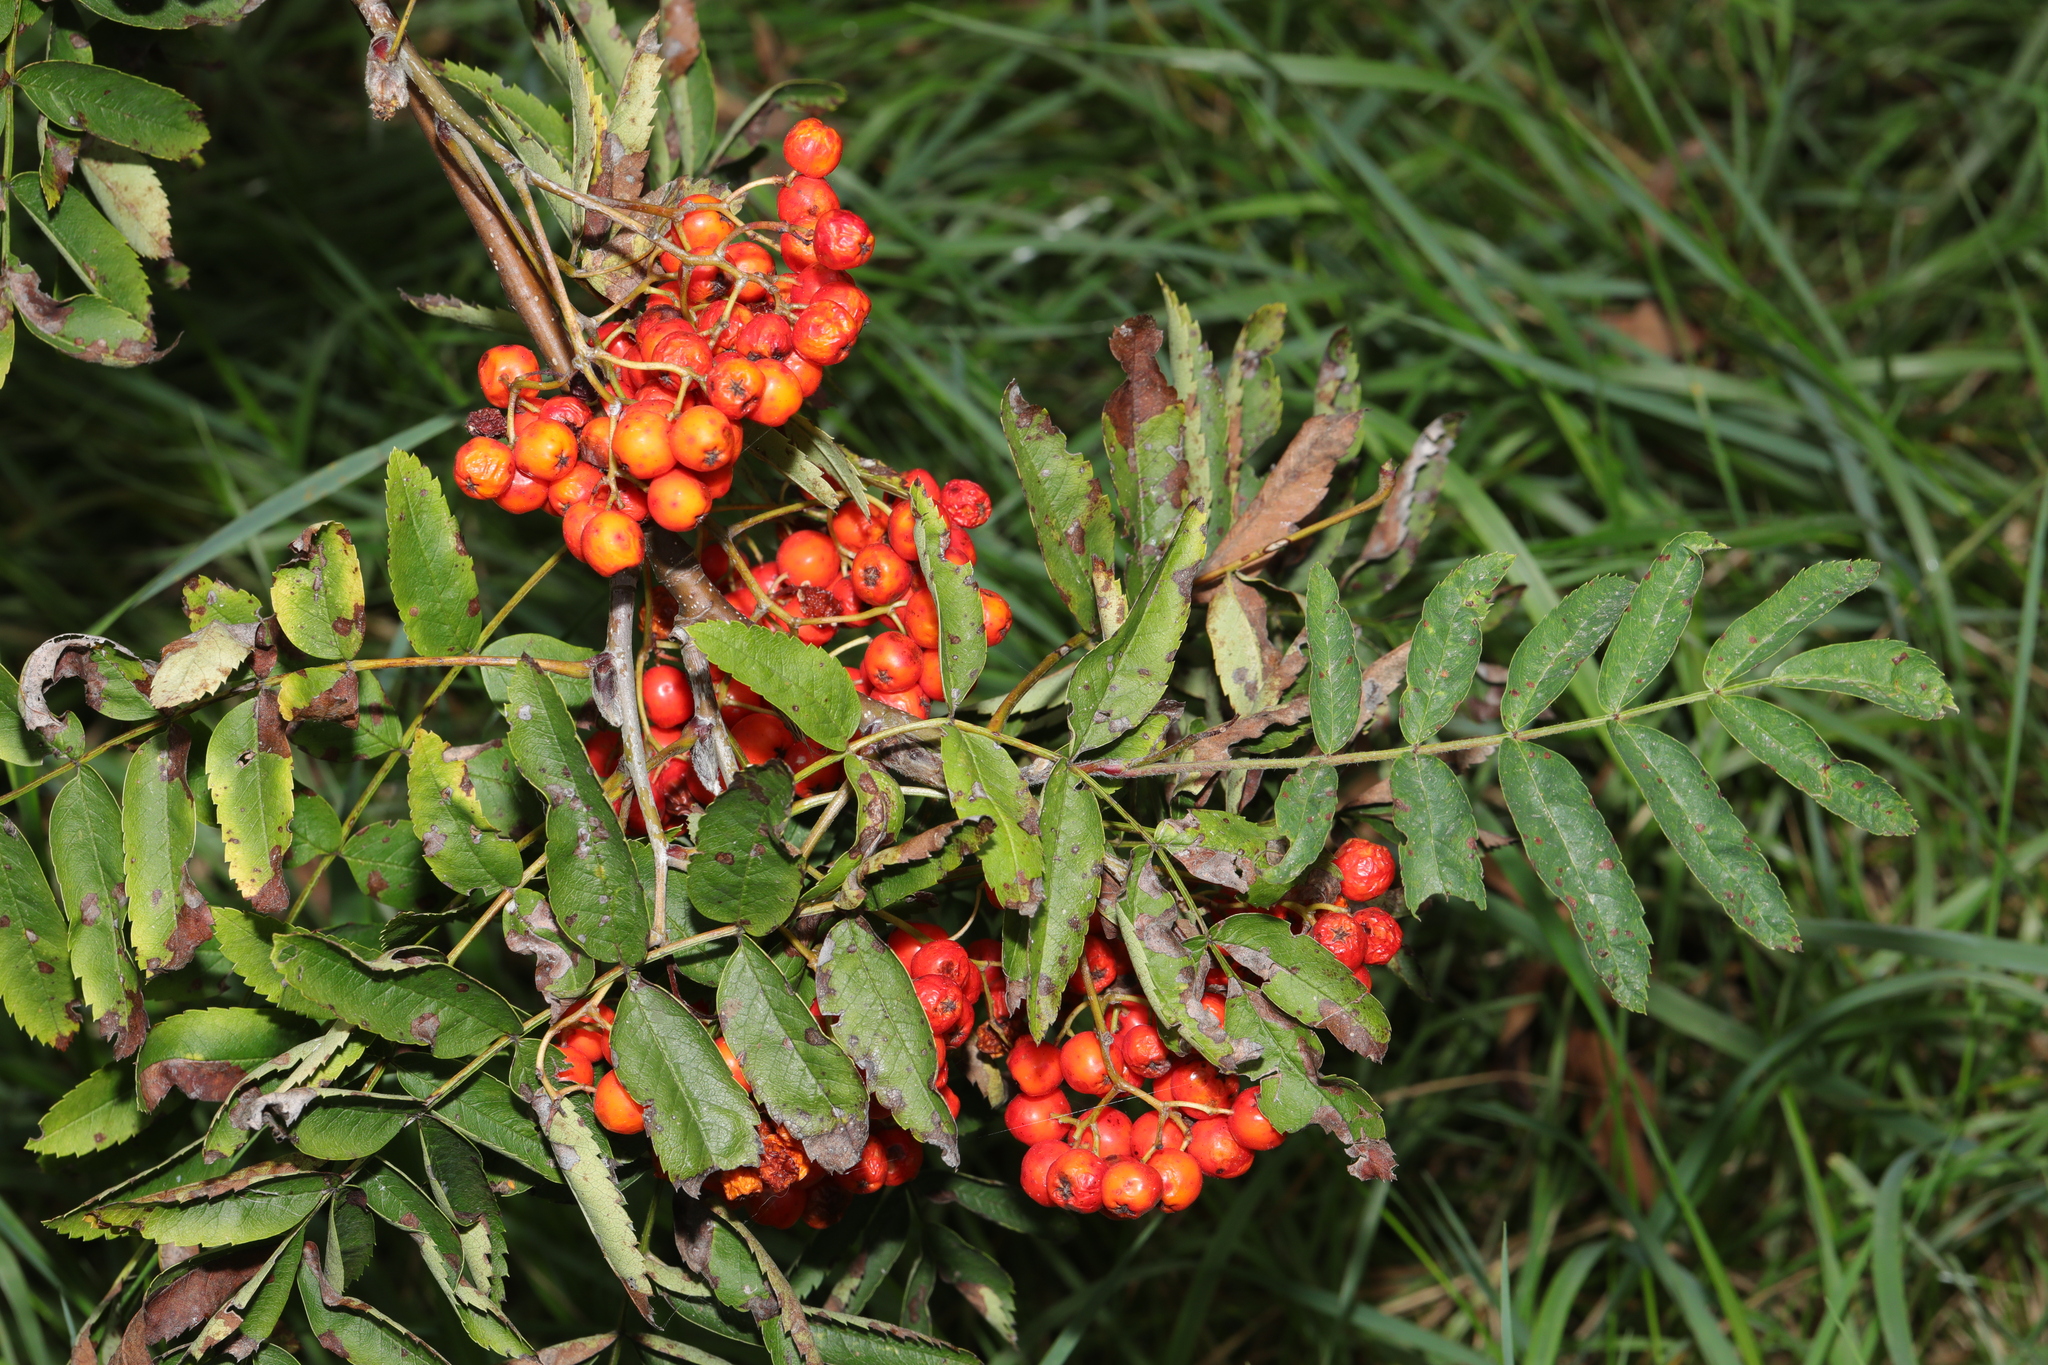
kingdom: Plantae
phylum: Tracheophyta
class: Magnoliopsida
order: Rosales
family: Rosaceae
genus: Sorbus
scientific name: Sorbus aucuparia
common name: Rowan
